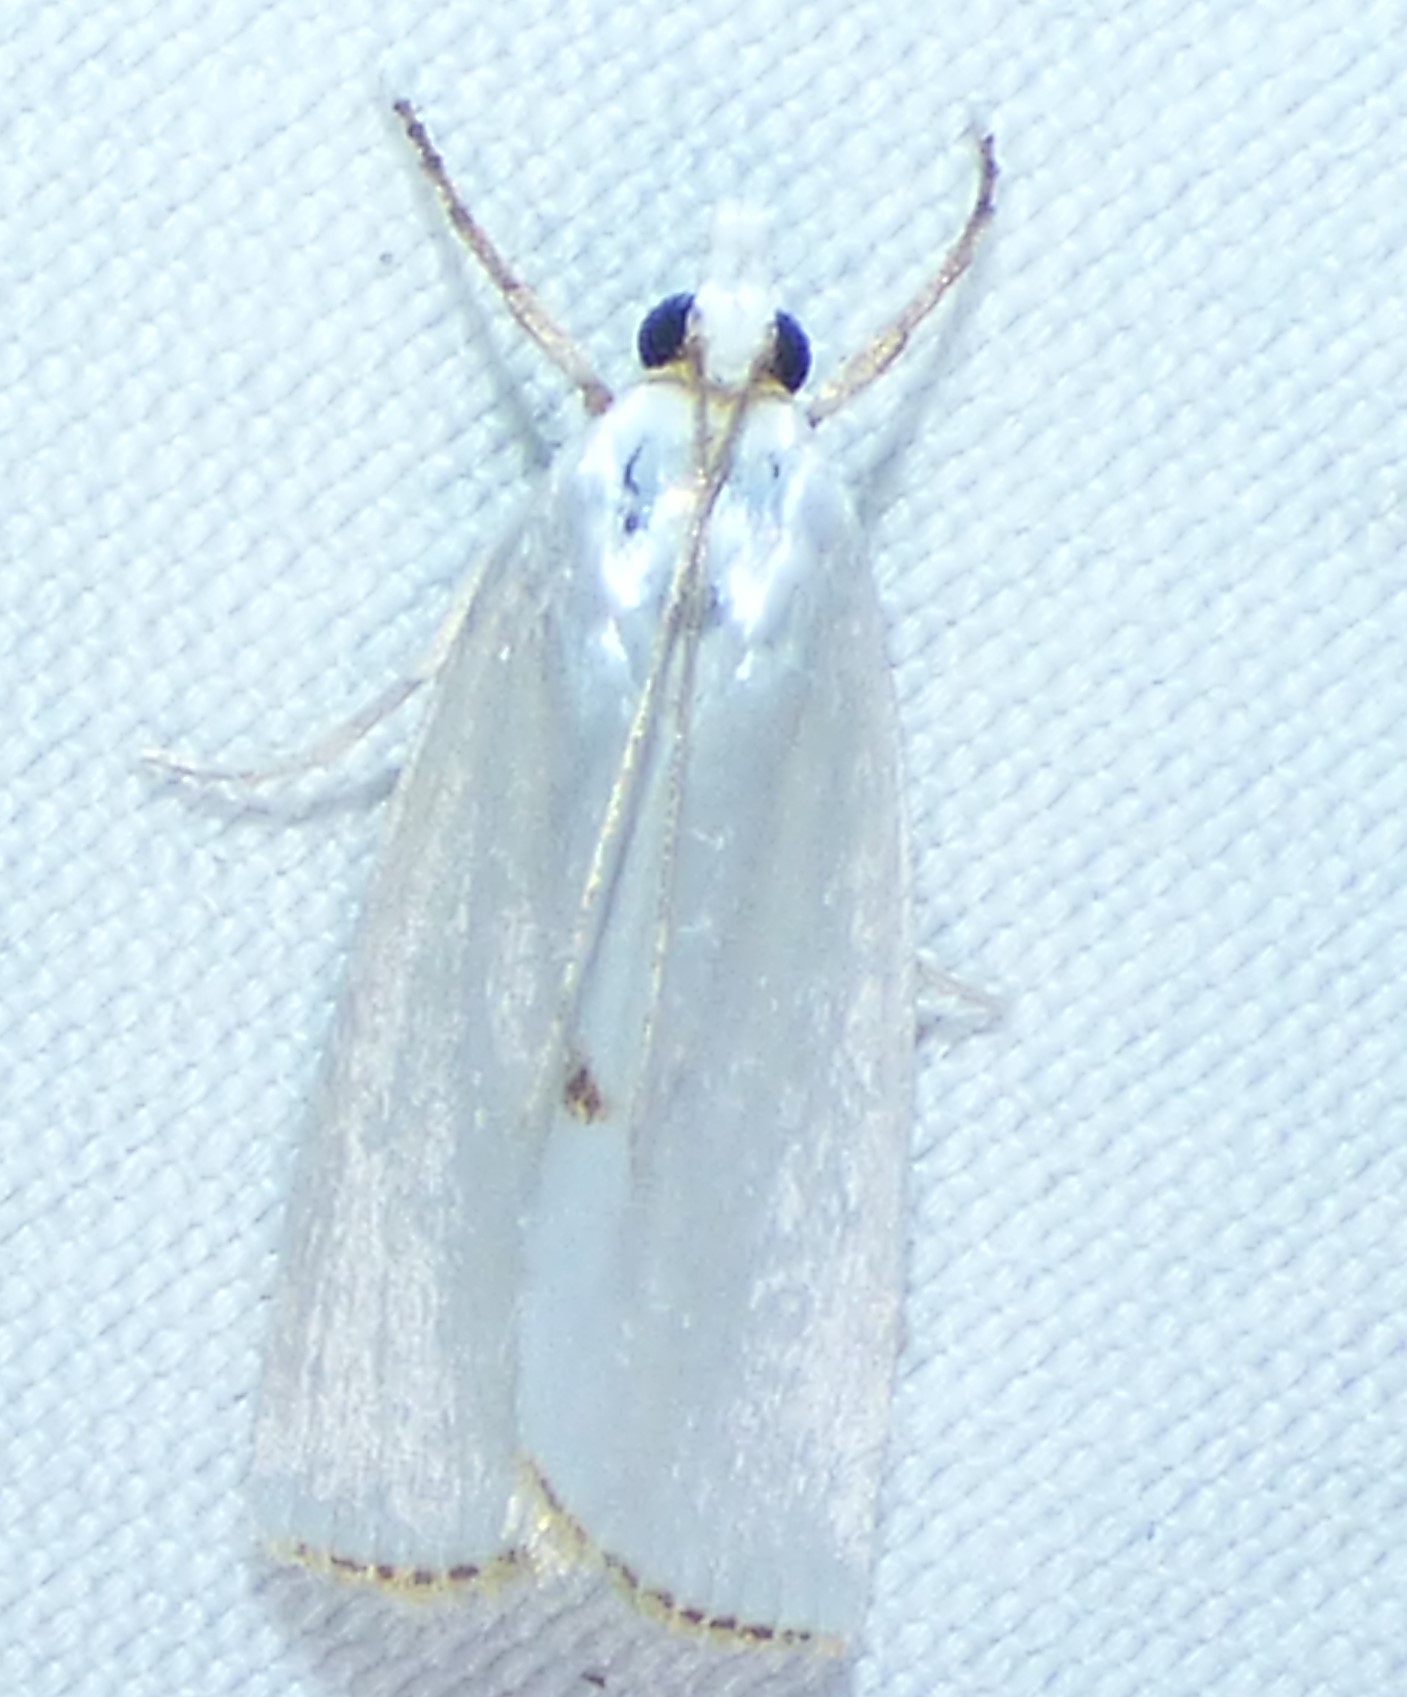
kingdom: Animalia
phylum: Arthropoda
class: Insecta
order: Lepidoptera
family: Crambidae
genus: Argyria
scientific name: Argyria nivalis
